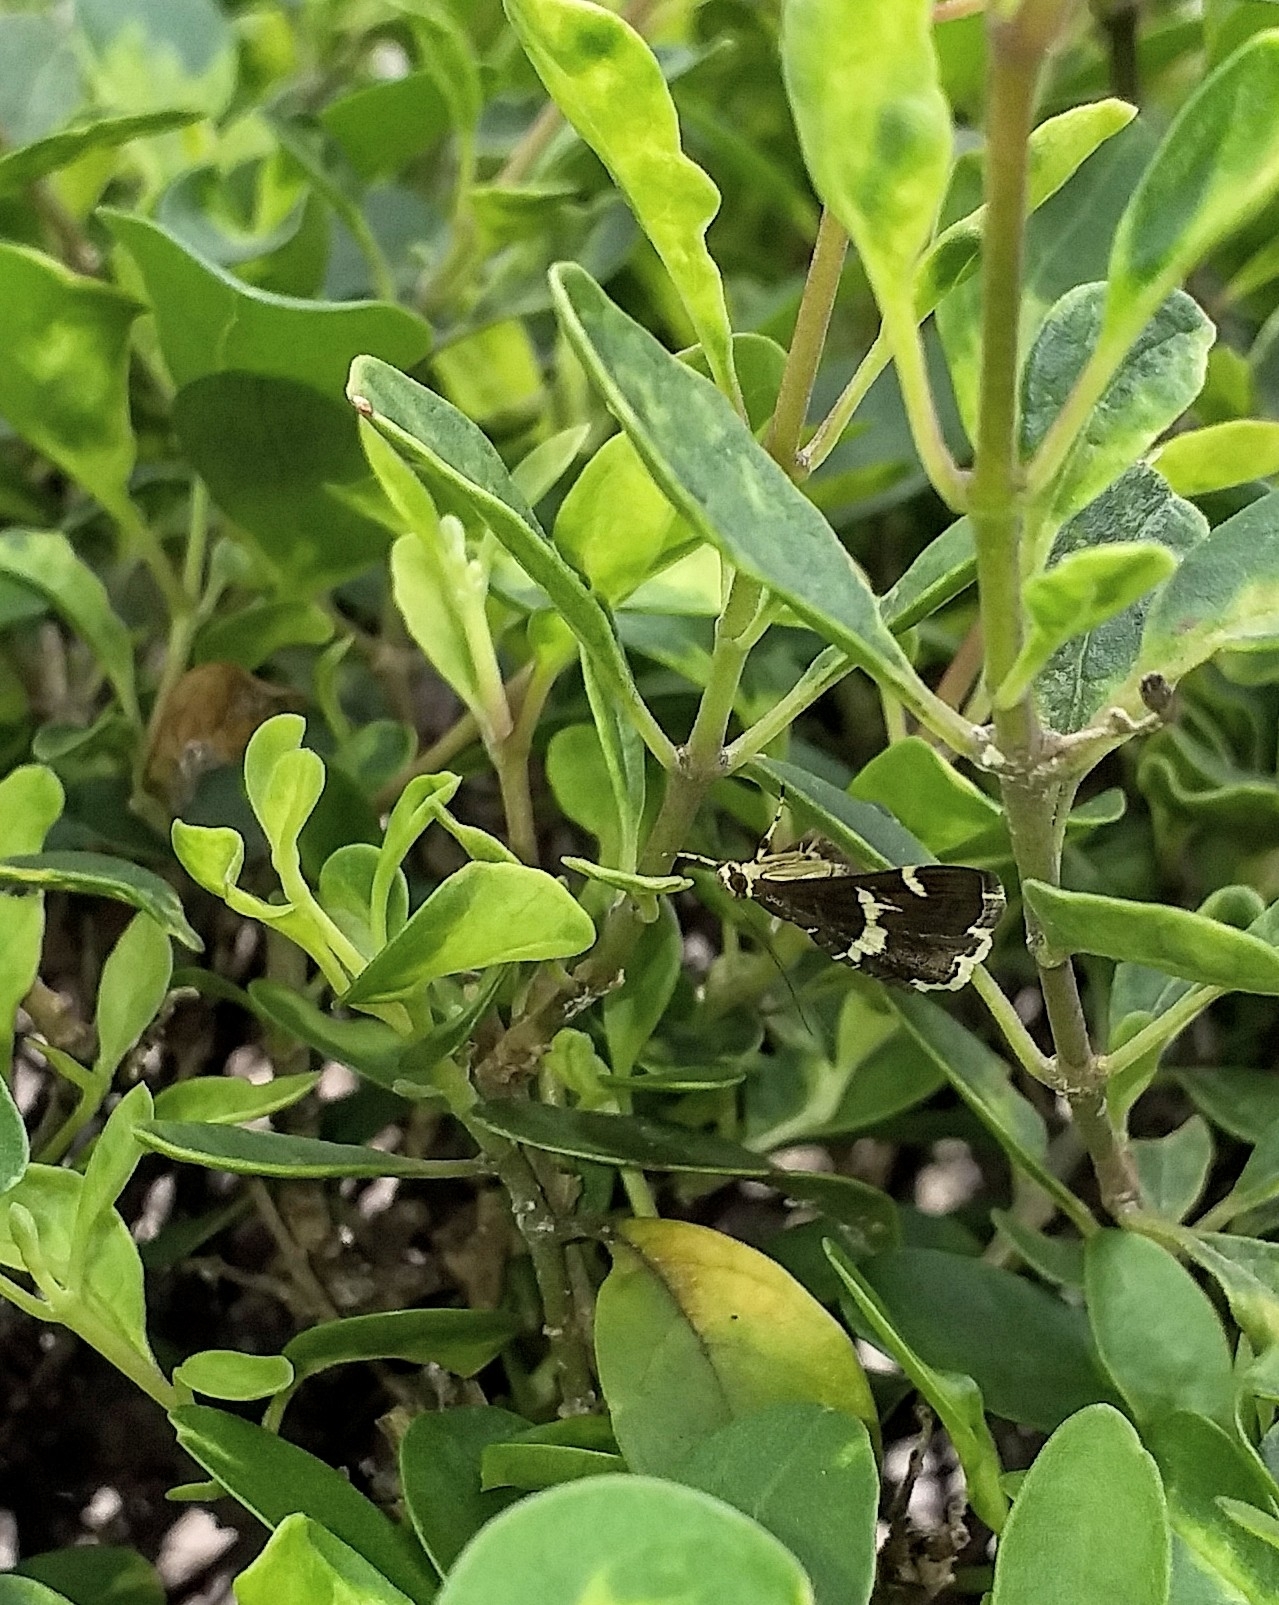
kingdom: Animalia
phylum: Arthropoda
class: Insecta
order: Lepidoptera
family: Crambidae
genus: Spoladea
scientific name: Spoladea recurvalis
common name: Beet webworm moth
